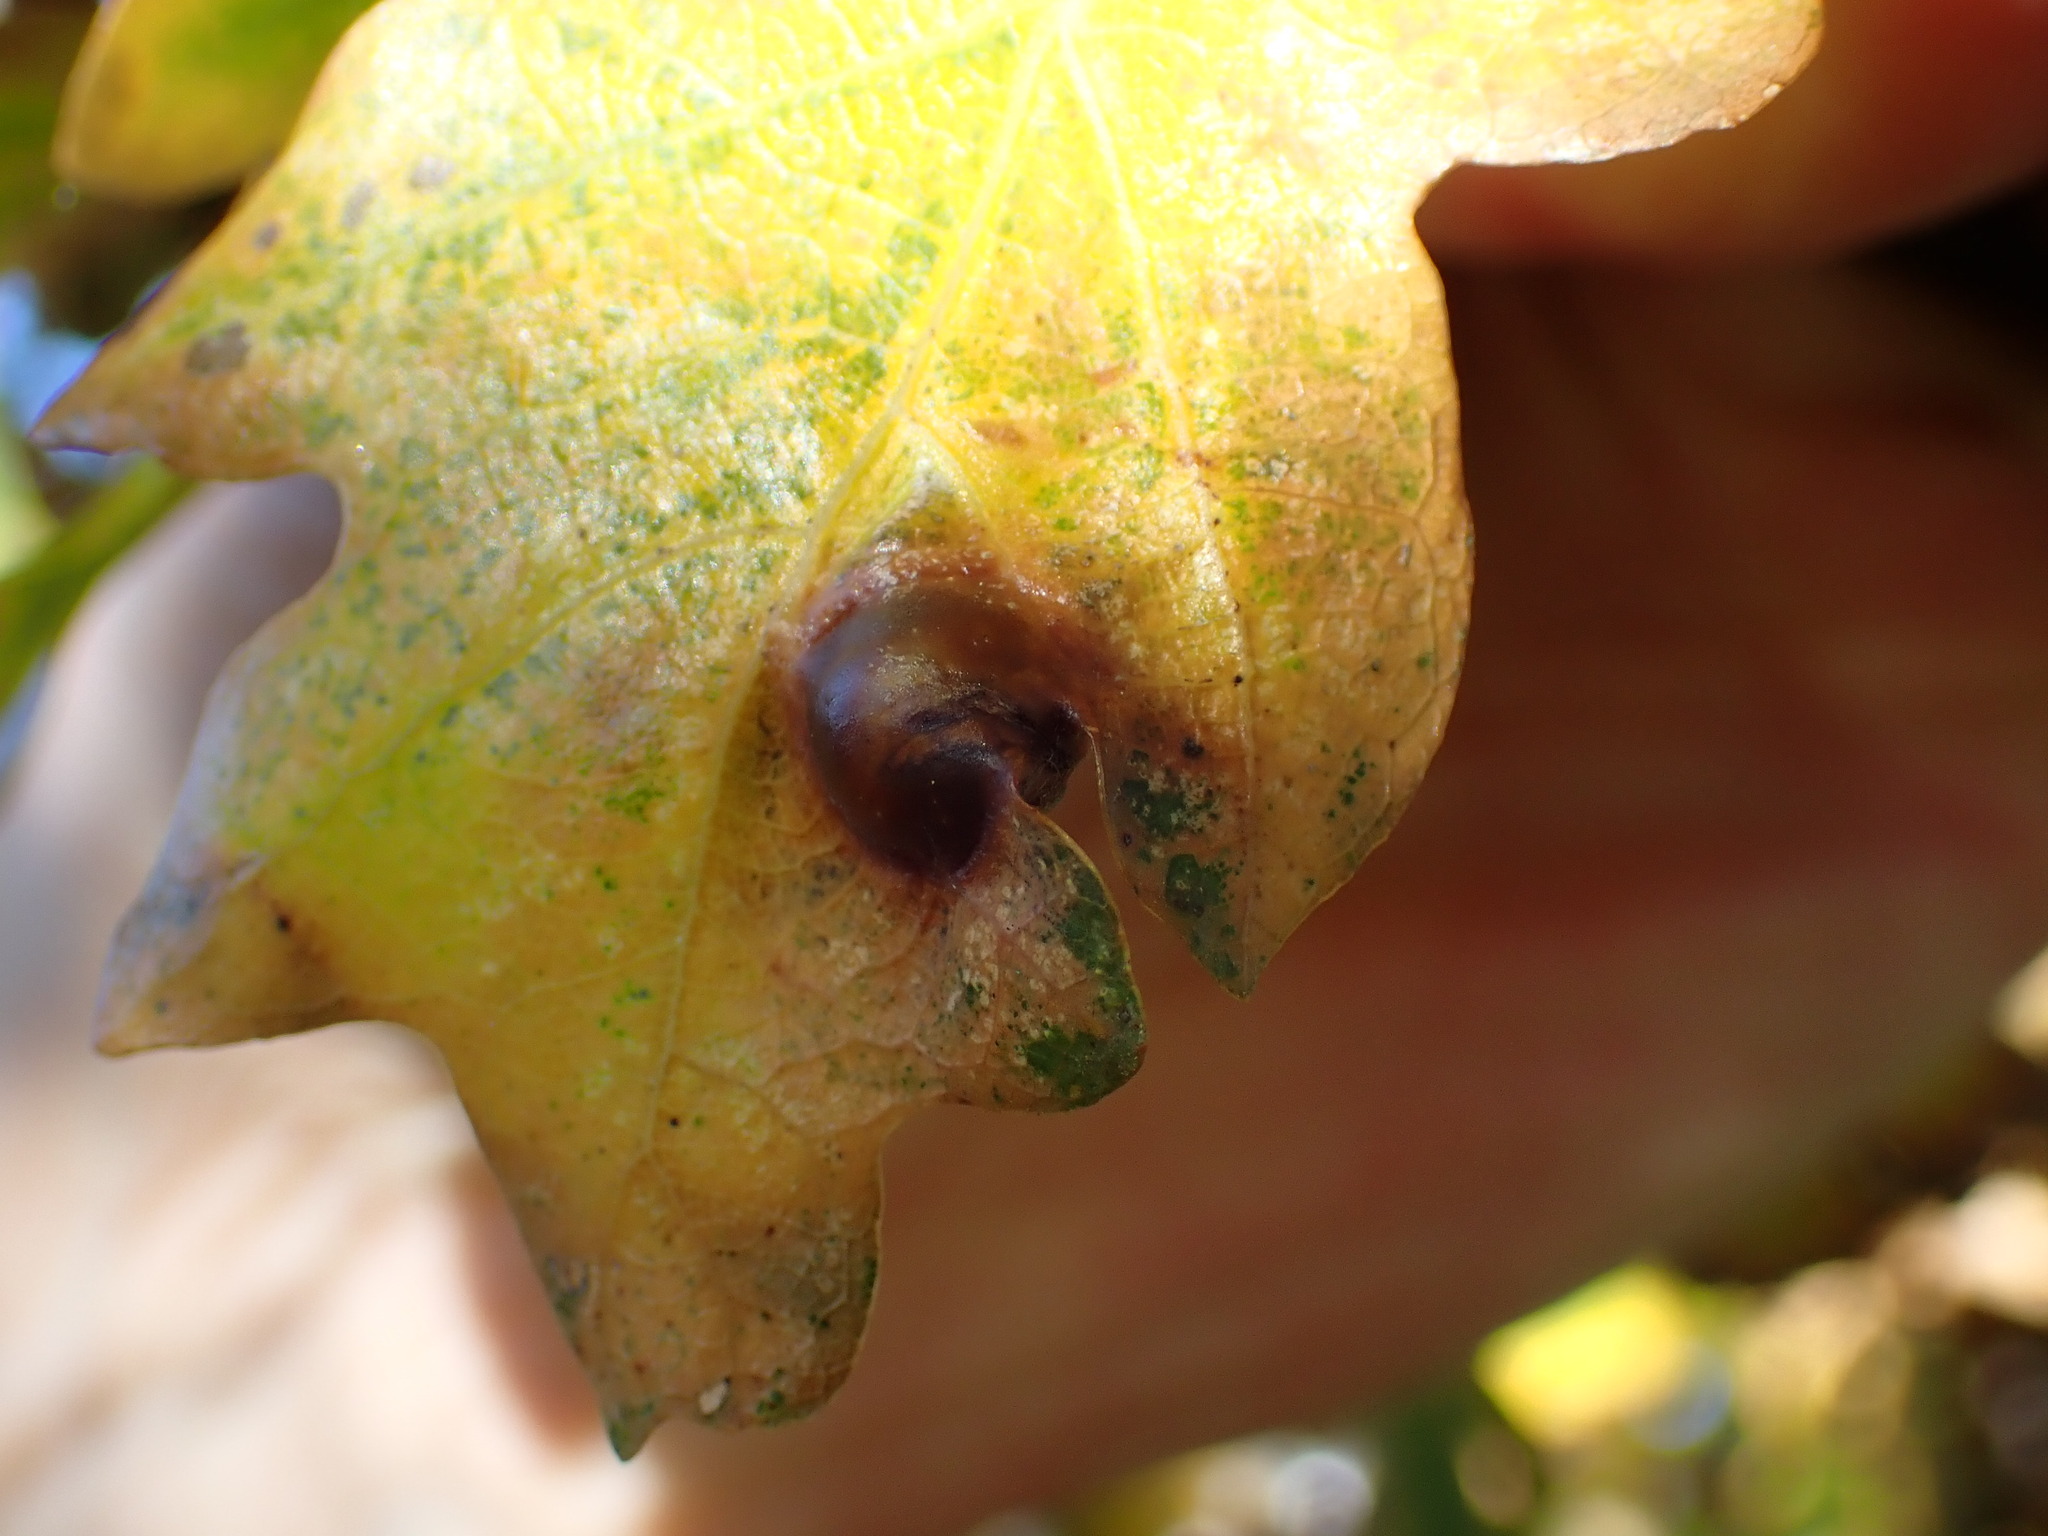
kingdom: Animalia
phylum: Arthropoda
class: Insecta
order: Hymenoptera
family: Cynipidae
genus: Andricus
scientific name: Andricus curvator
